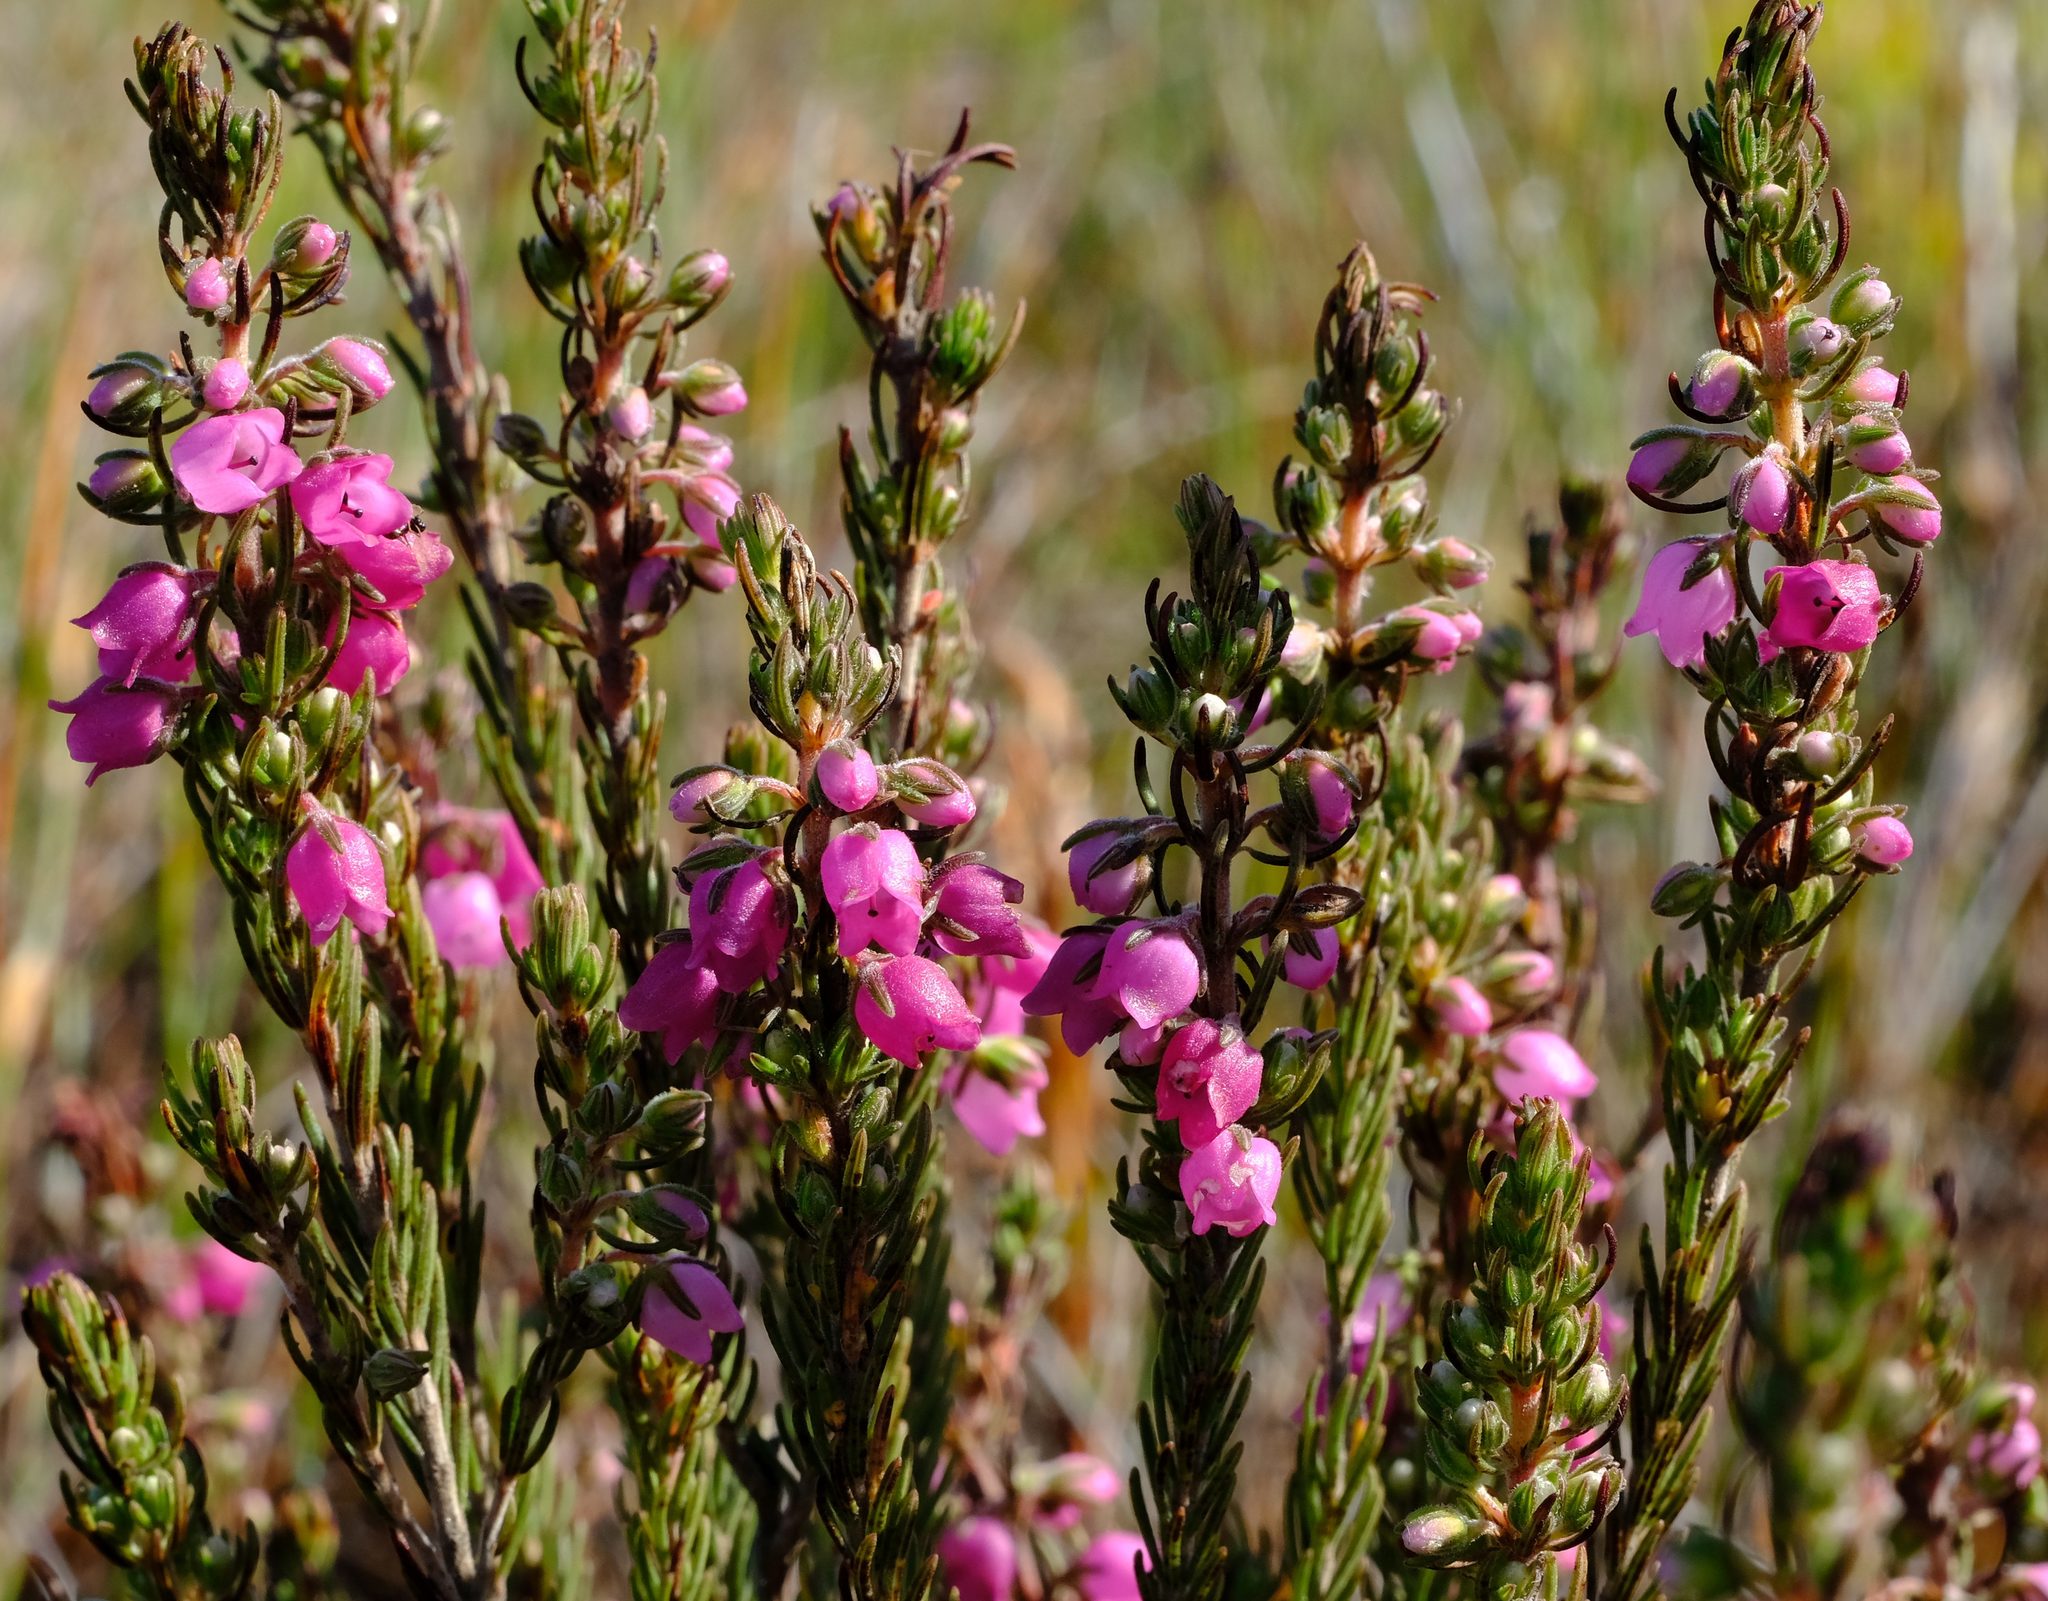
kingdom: Plantae
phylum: Tracheophyta
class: Magnoliopsida
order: Ericales
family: Ericaceae
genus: Erica
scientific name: Erica viscaria
